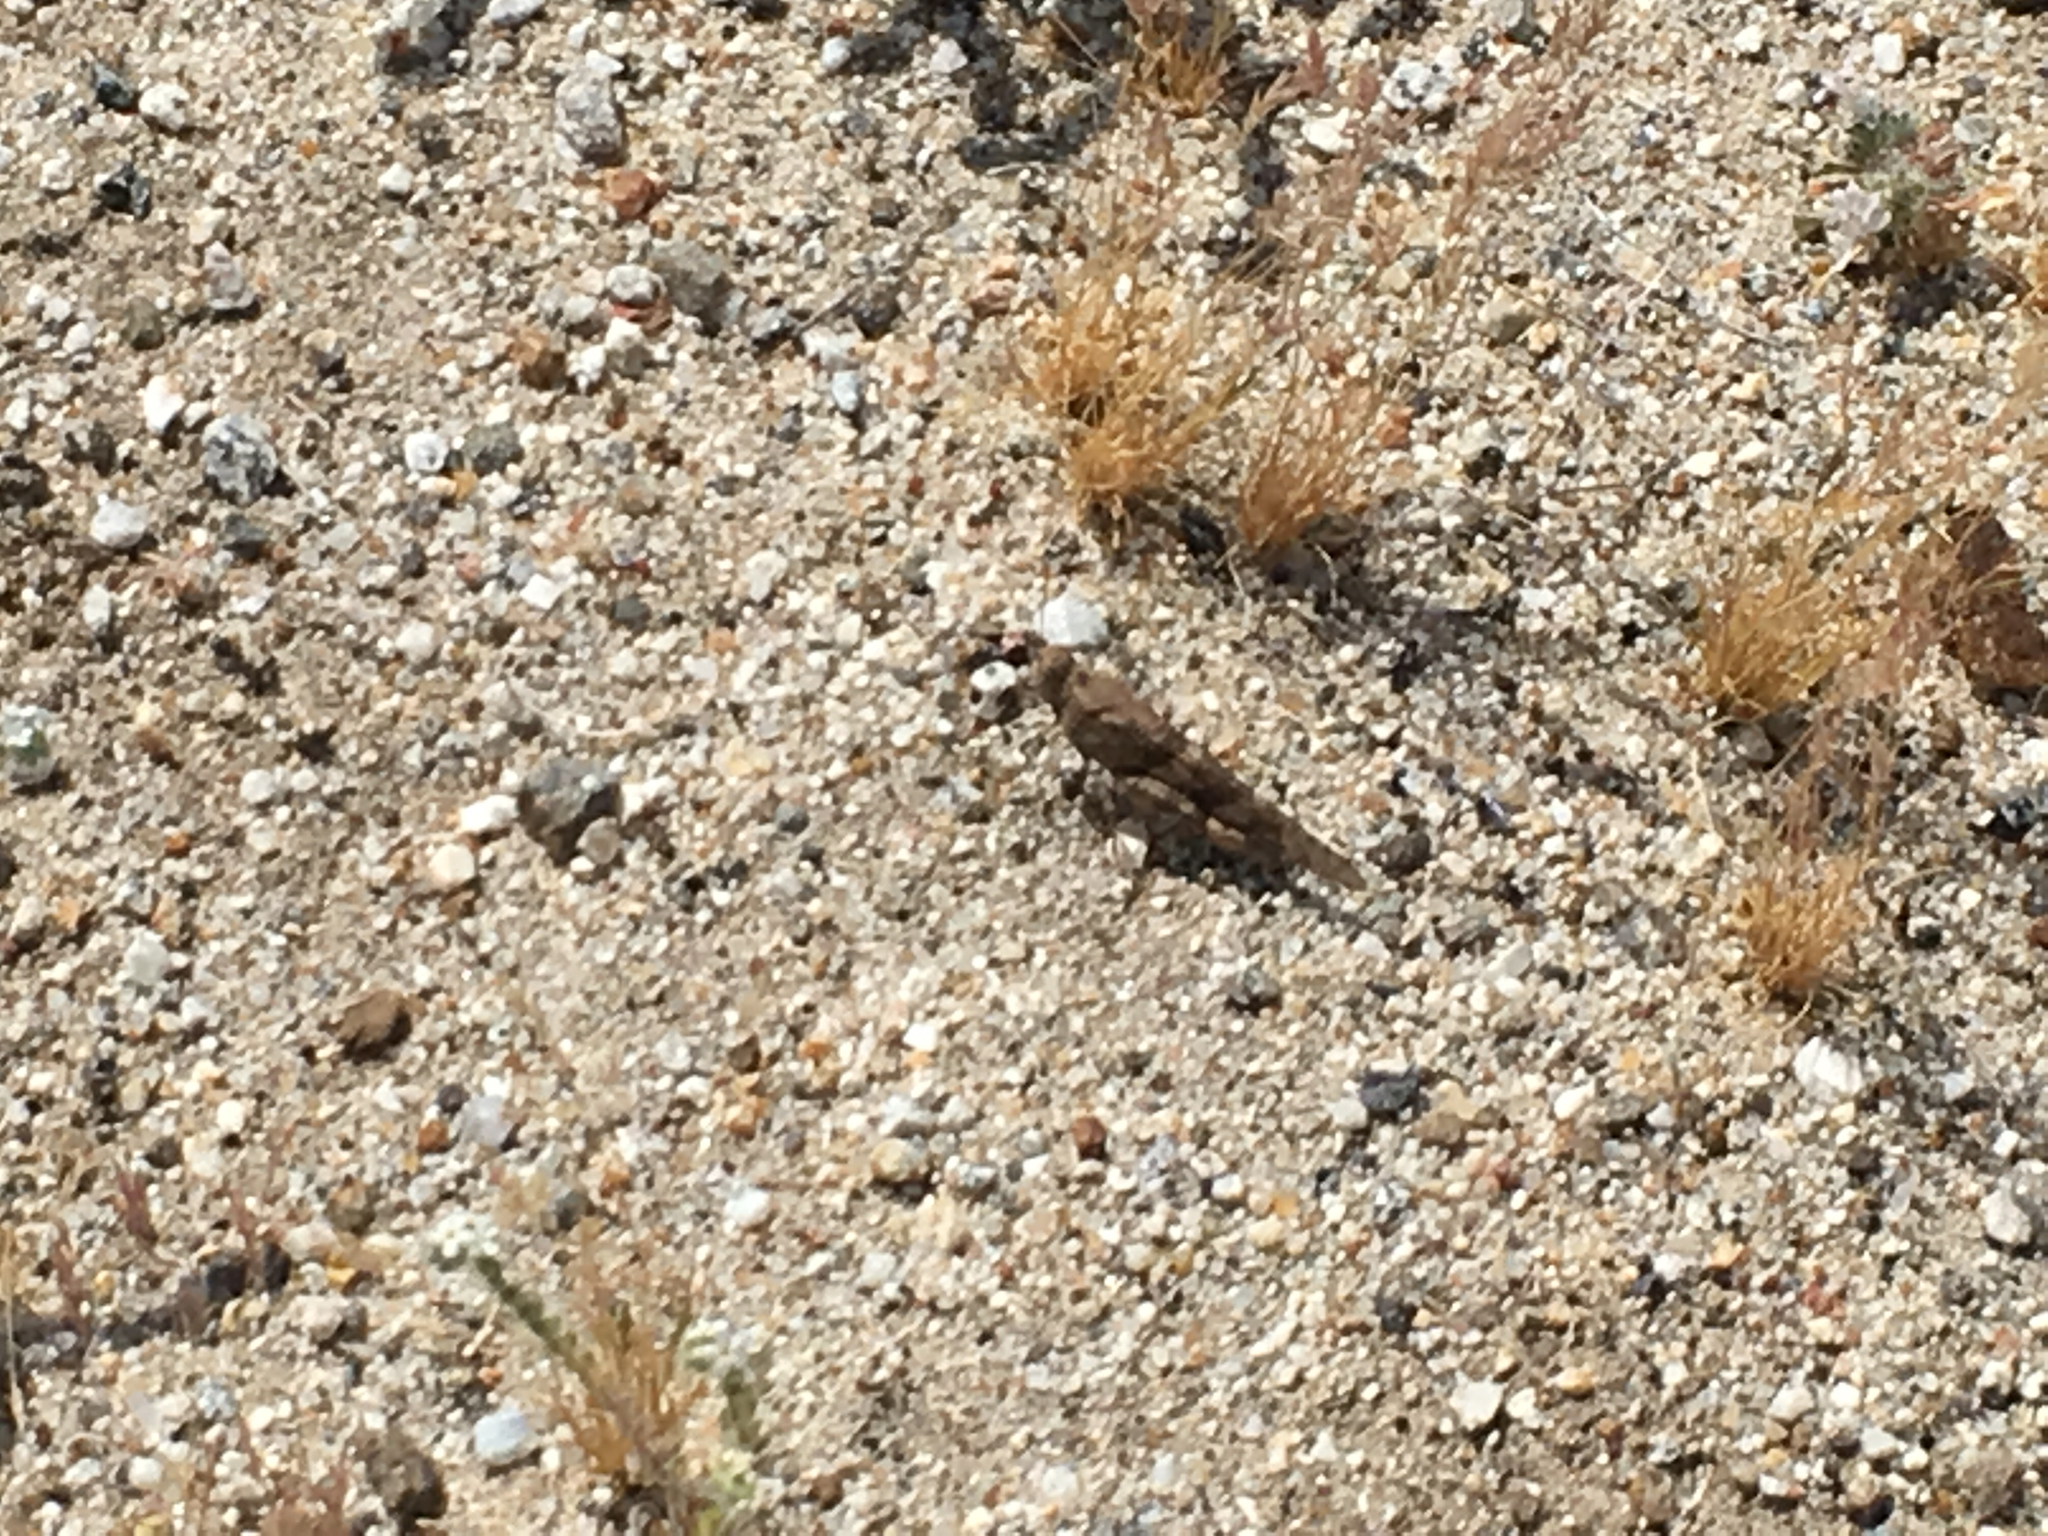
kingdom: Animalia
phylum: Arthropoda
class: Insecta
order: Orthoptera
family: Acrididae
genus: Trimerotropis
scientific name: Trimerotropis pallidipennis
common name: Pallid-winged grasshopper
